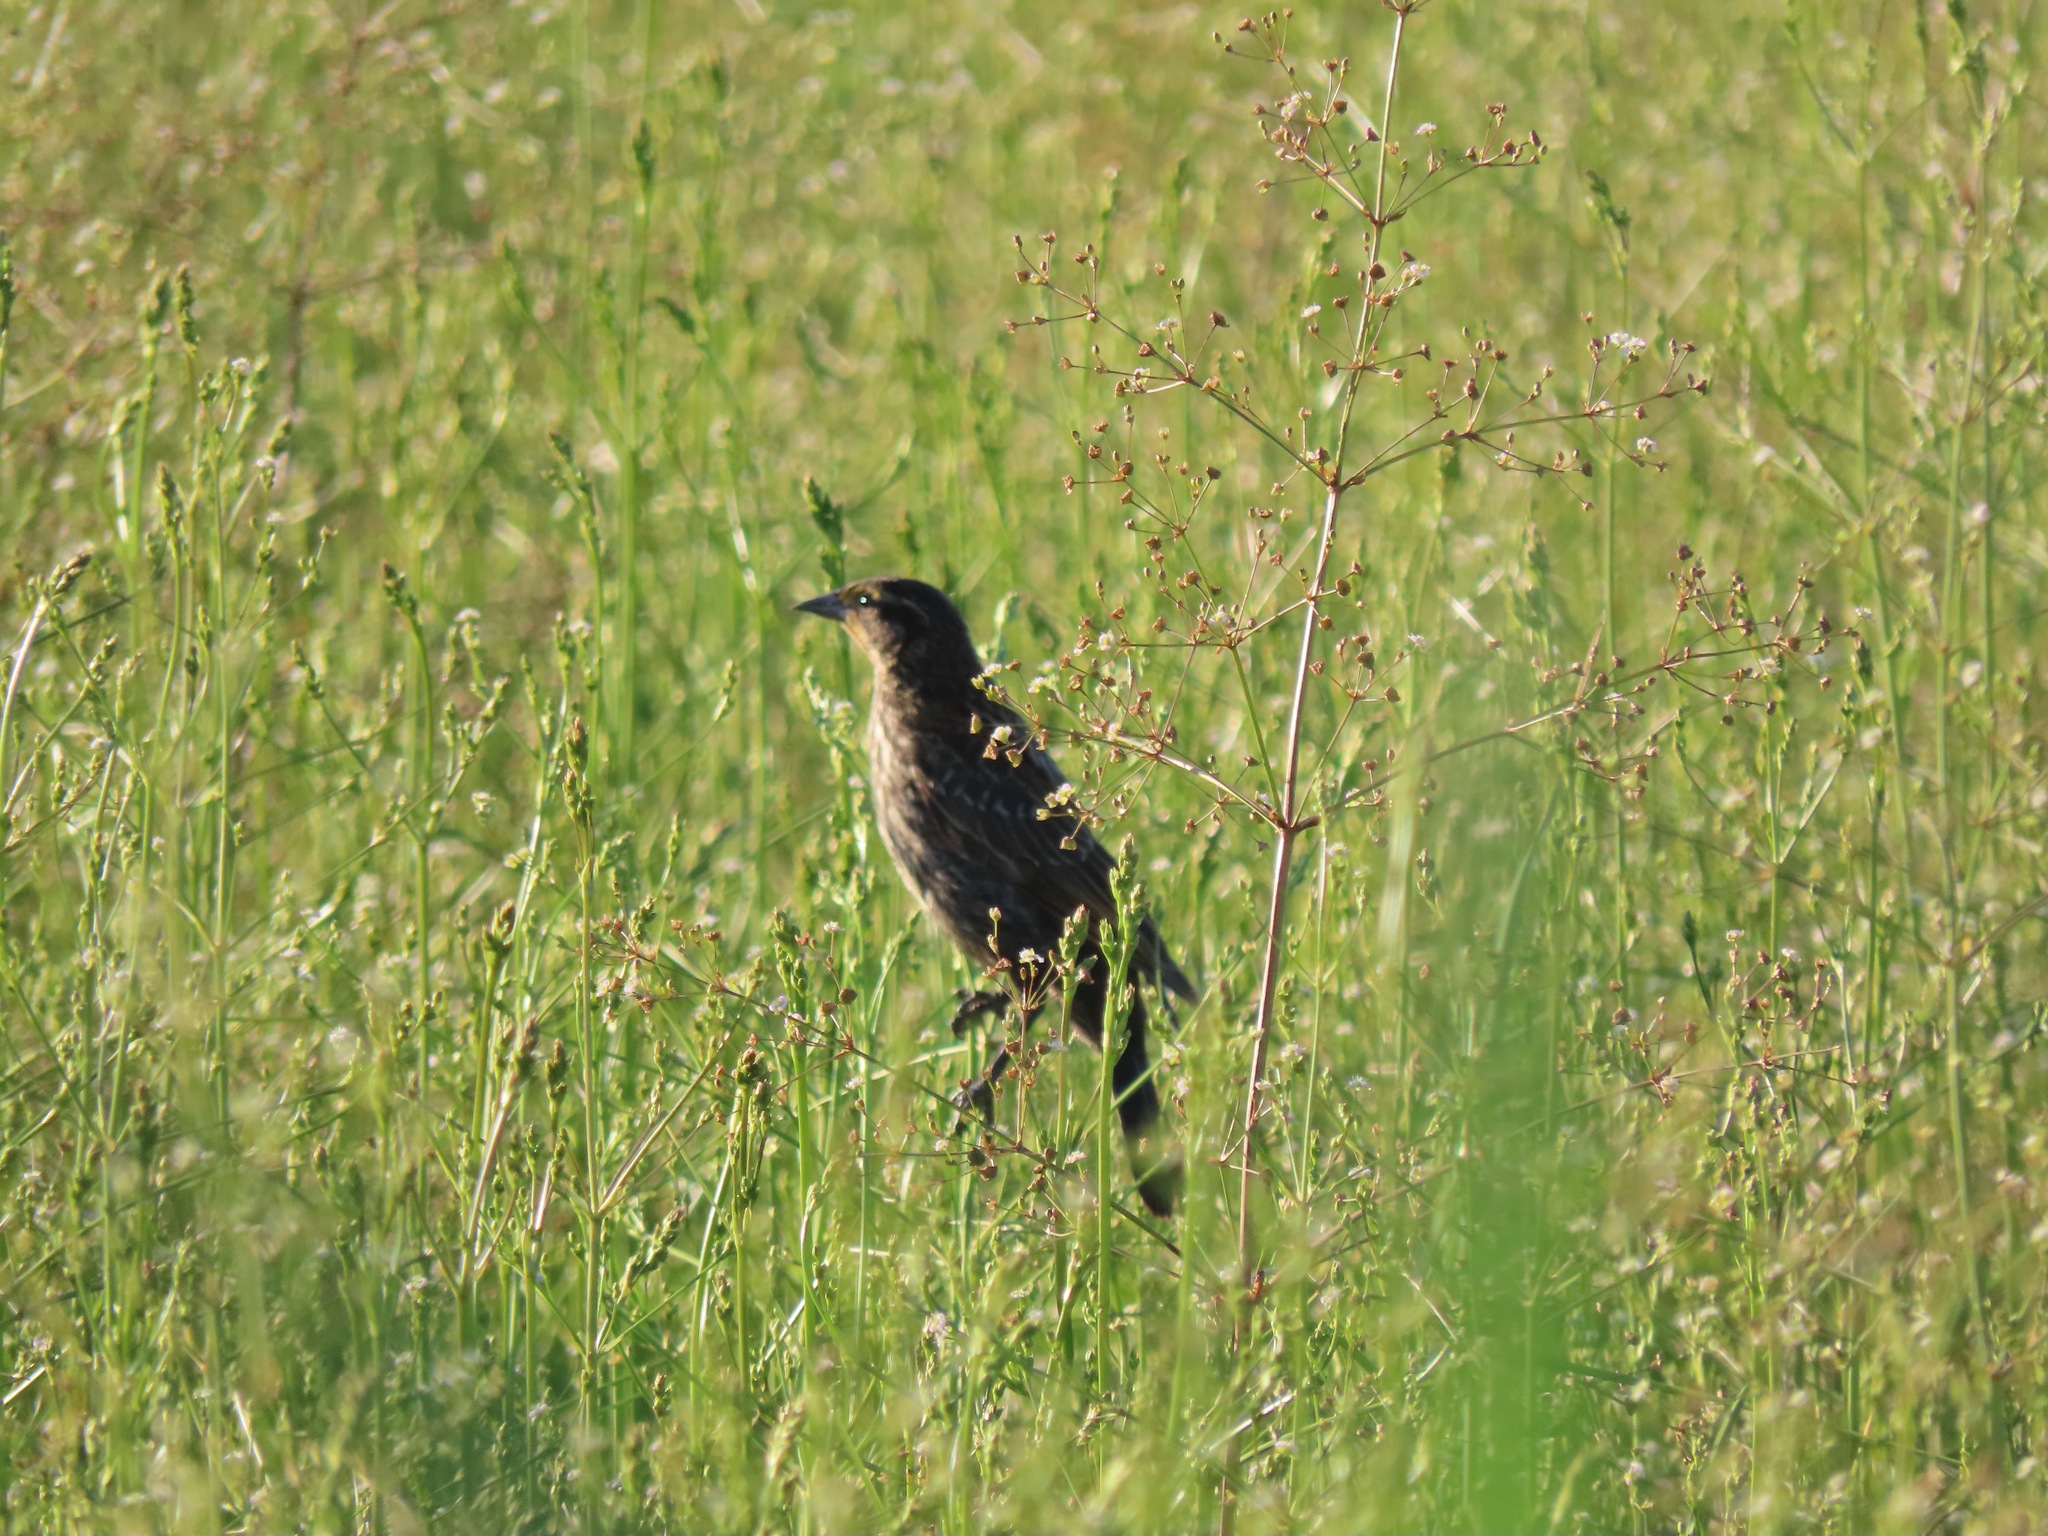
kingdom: Animalia
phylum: Chordata
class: Aves
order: Passeriformes
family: Icteridae
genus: Agelaius
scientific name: Agelaius phoeniceus
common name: Red-winged blackbird
